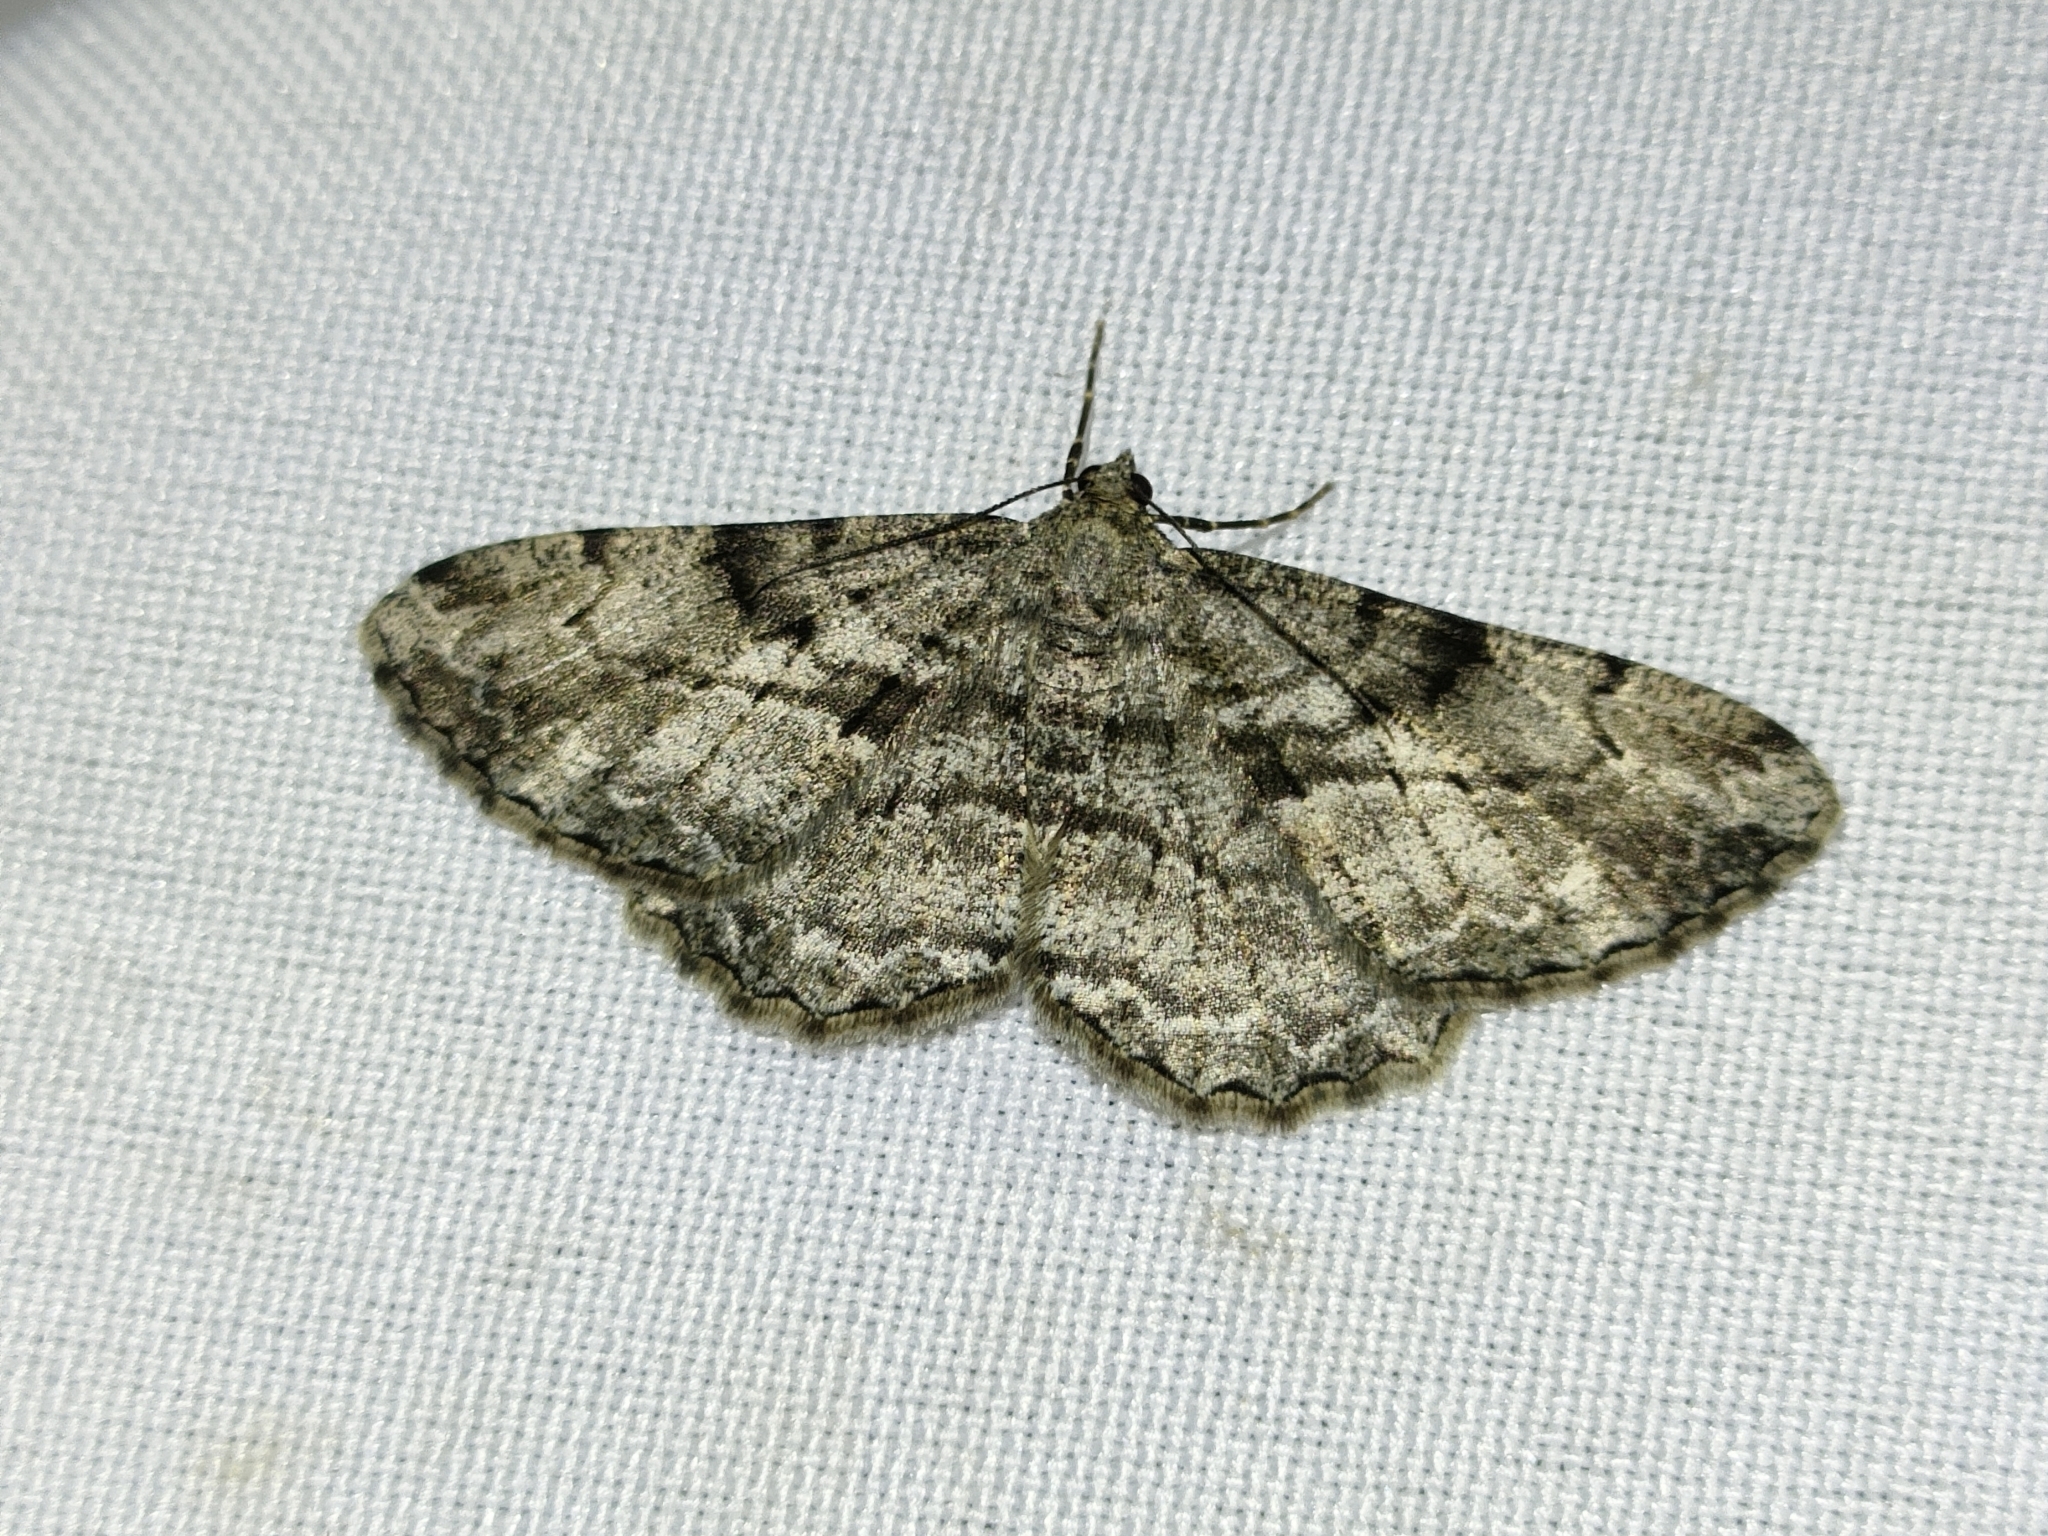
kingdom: Animalia
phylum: Arthropoda
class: Insecta
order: Lepidoptera
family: Geometridae
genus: Peribatodes
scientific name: Peribatodes rhomboidaria
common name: Willow beauty
